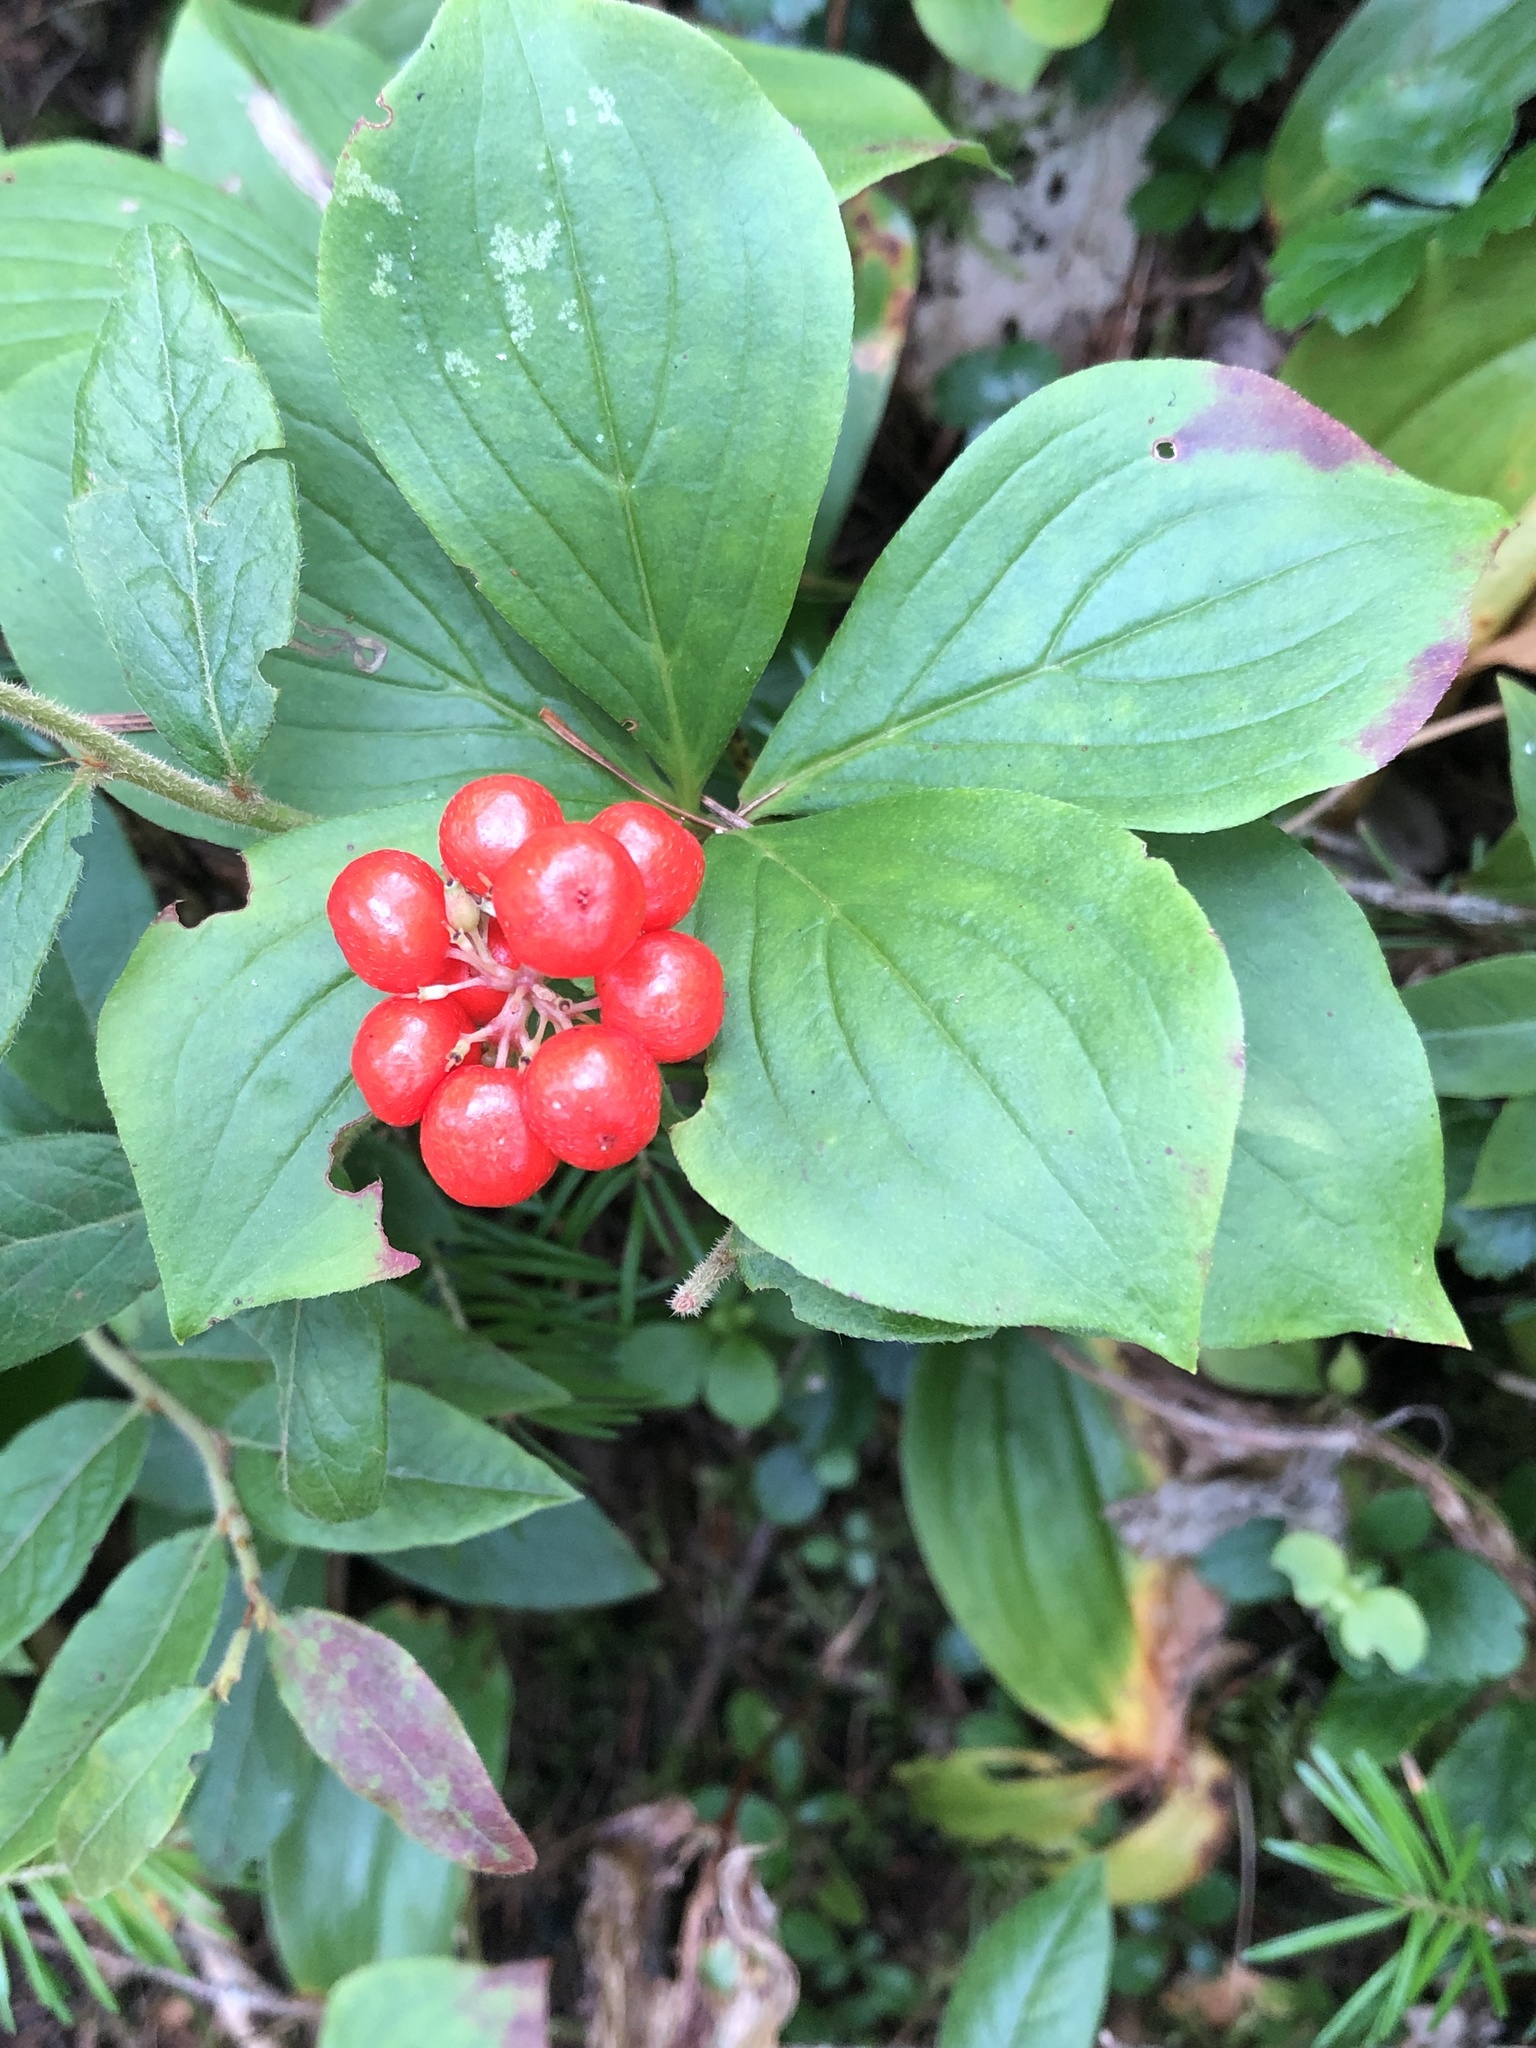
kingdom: Plantae
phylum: Tracheophyta
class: Magnoliopsida
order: Cornales
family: Cornaceae
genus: Cornus
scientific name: Cornus canadensis
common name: Creeping dogwood
